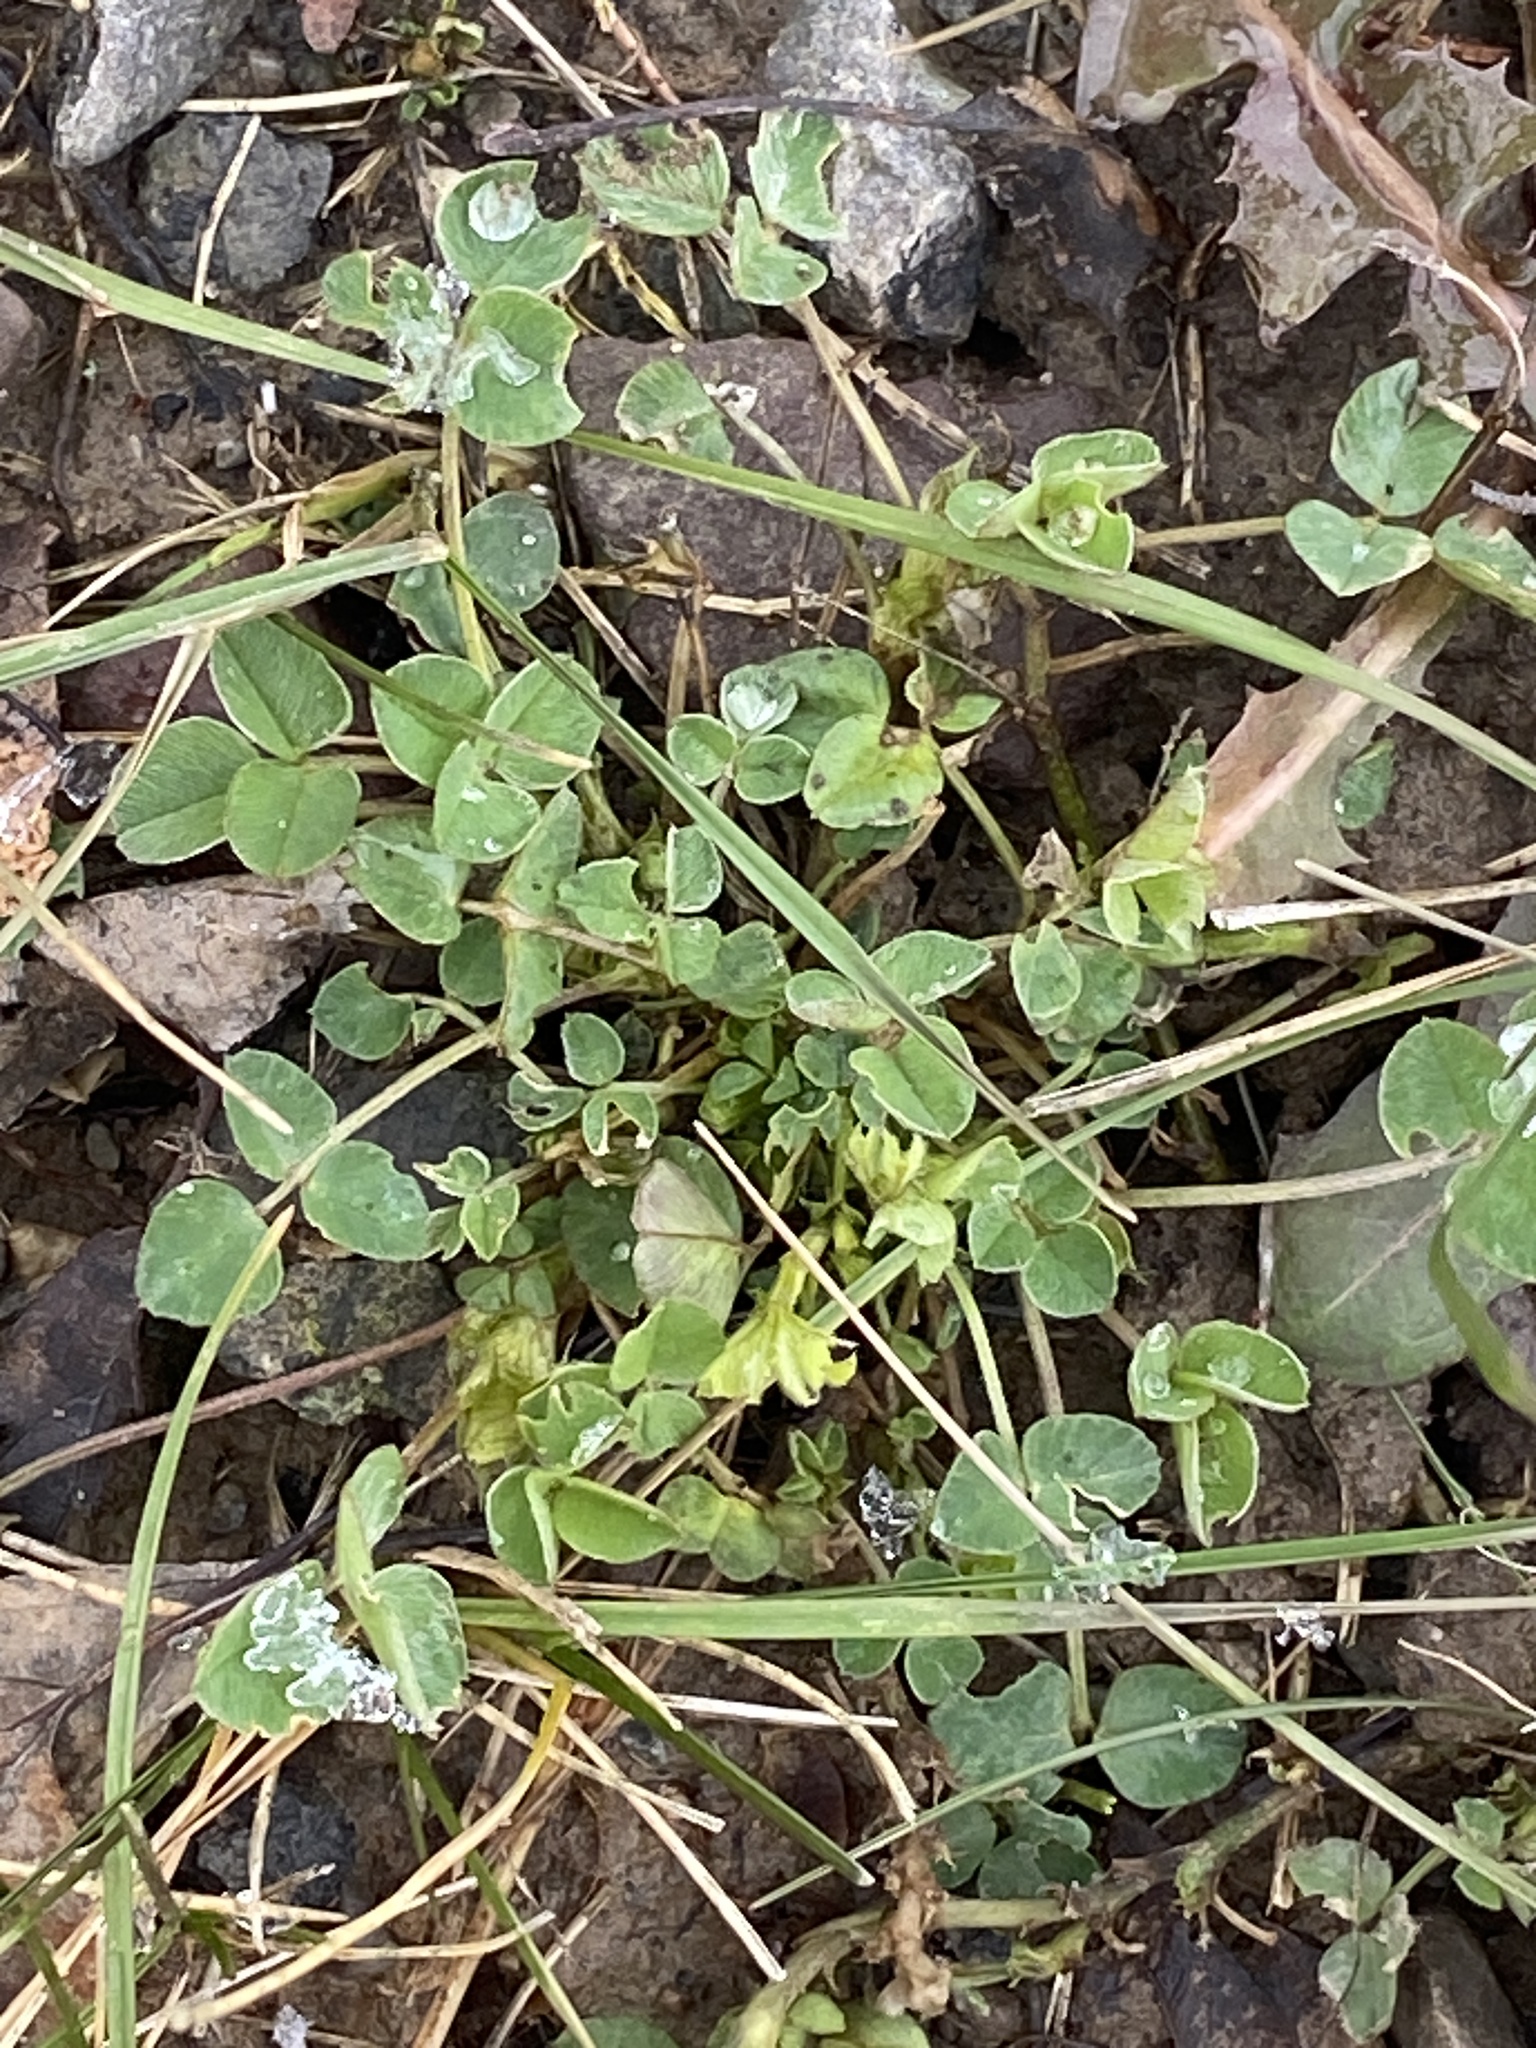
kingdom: Plantae
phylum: Tracheophyta
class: Magnoliopsida
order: Fabales
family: Fabaceae
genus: Medicago
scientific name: Medicago lupulina
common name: Black medick
